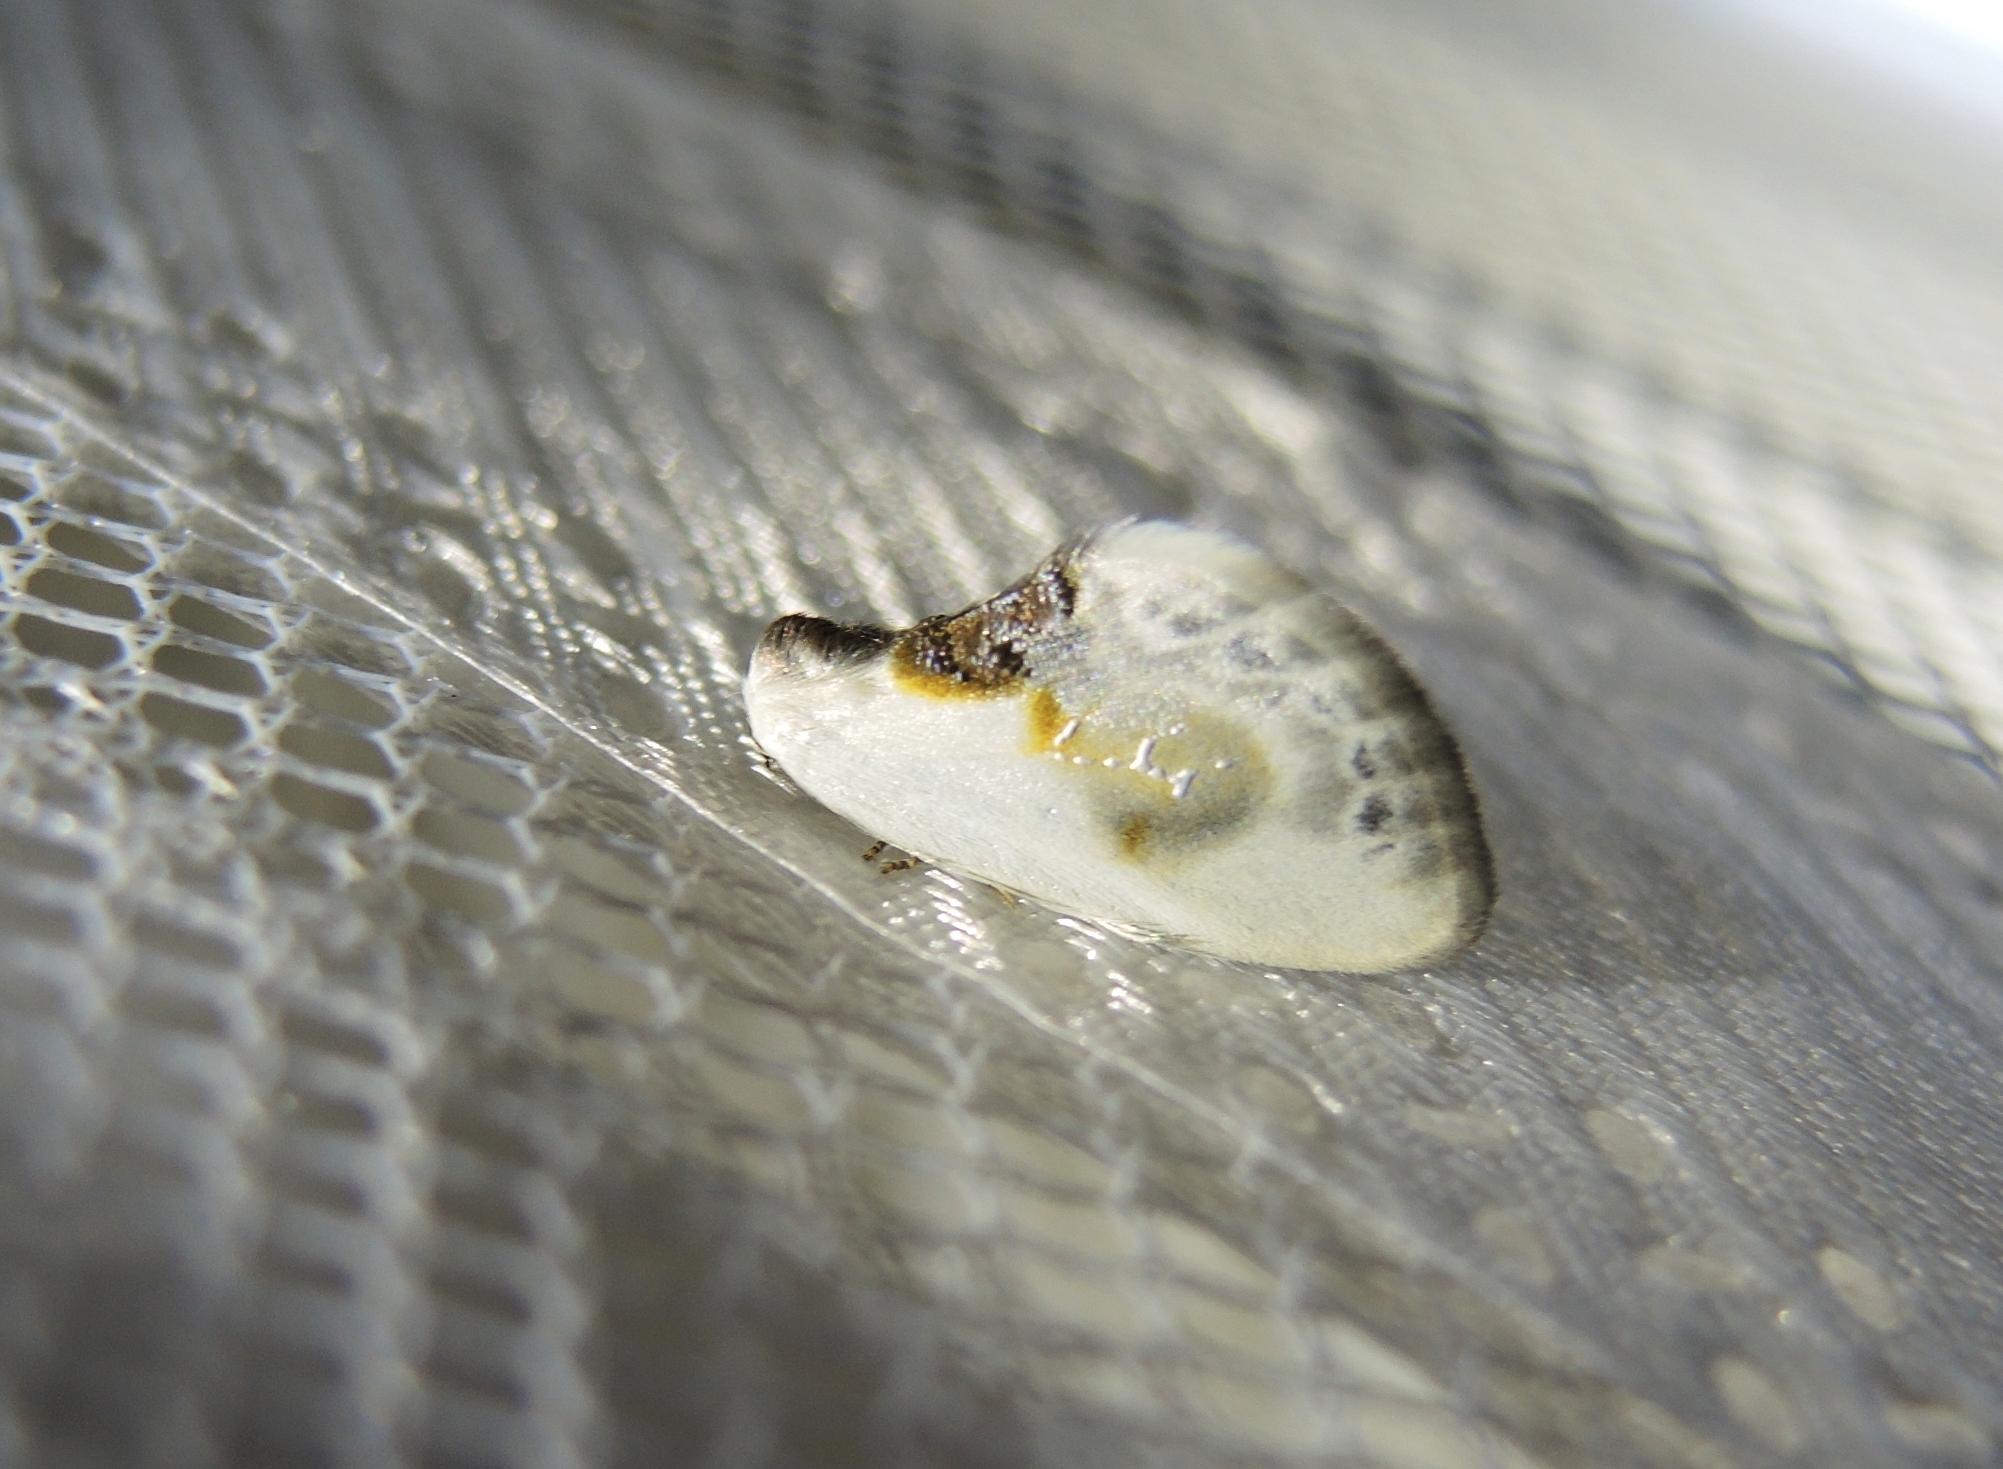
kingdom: Animalia
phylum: Arthropoda
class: Insecta
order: Lepidoptera
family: Drepanidae
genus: Cilix
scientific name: Cilix glaucata
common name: Chinese character
